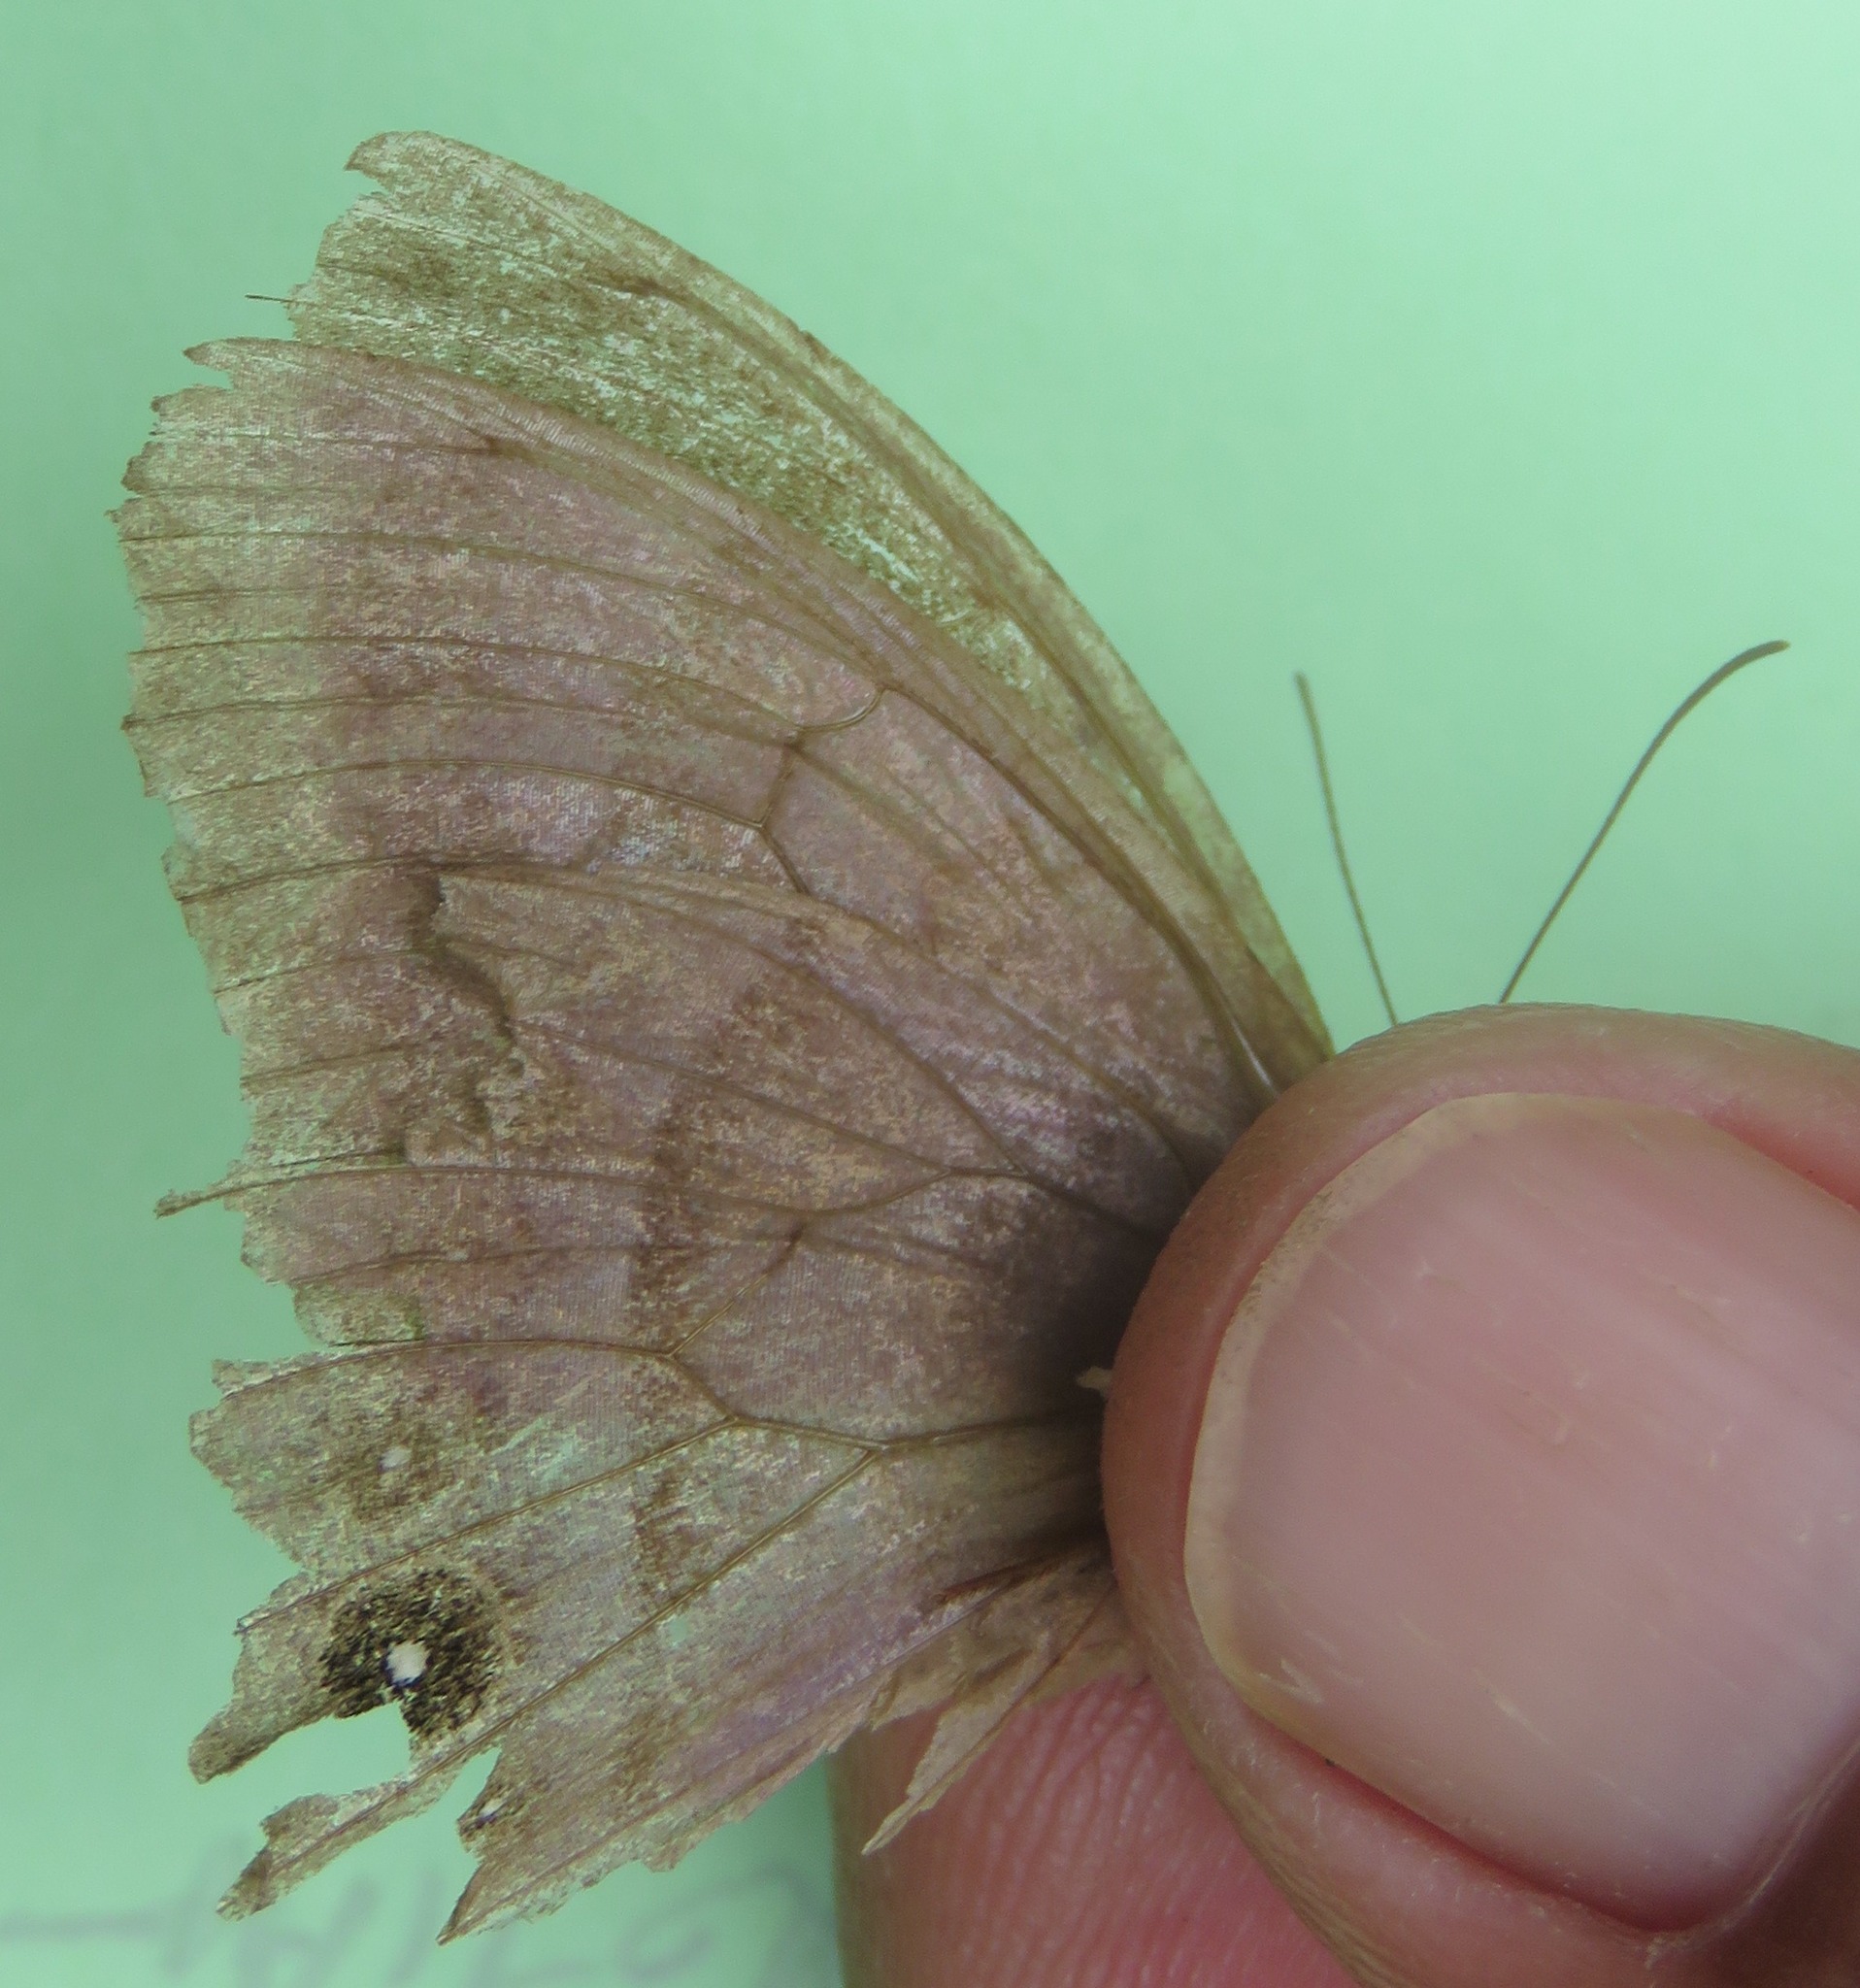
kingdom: Animalia
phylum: Arthropoda
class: Insecta
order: Lepidoptera
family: Nymphalidae
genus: Taygetis
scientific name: Taygetis inconspicua
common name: Inconspicuous satyr
